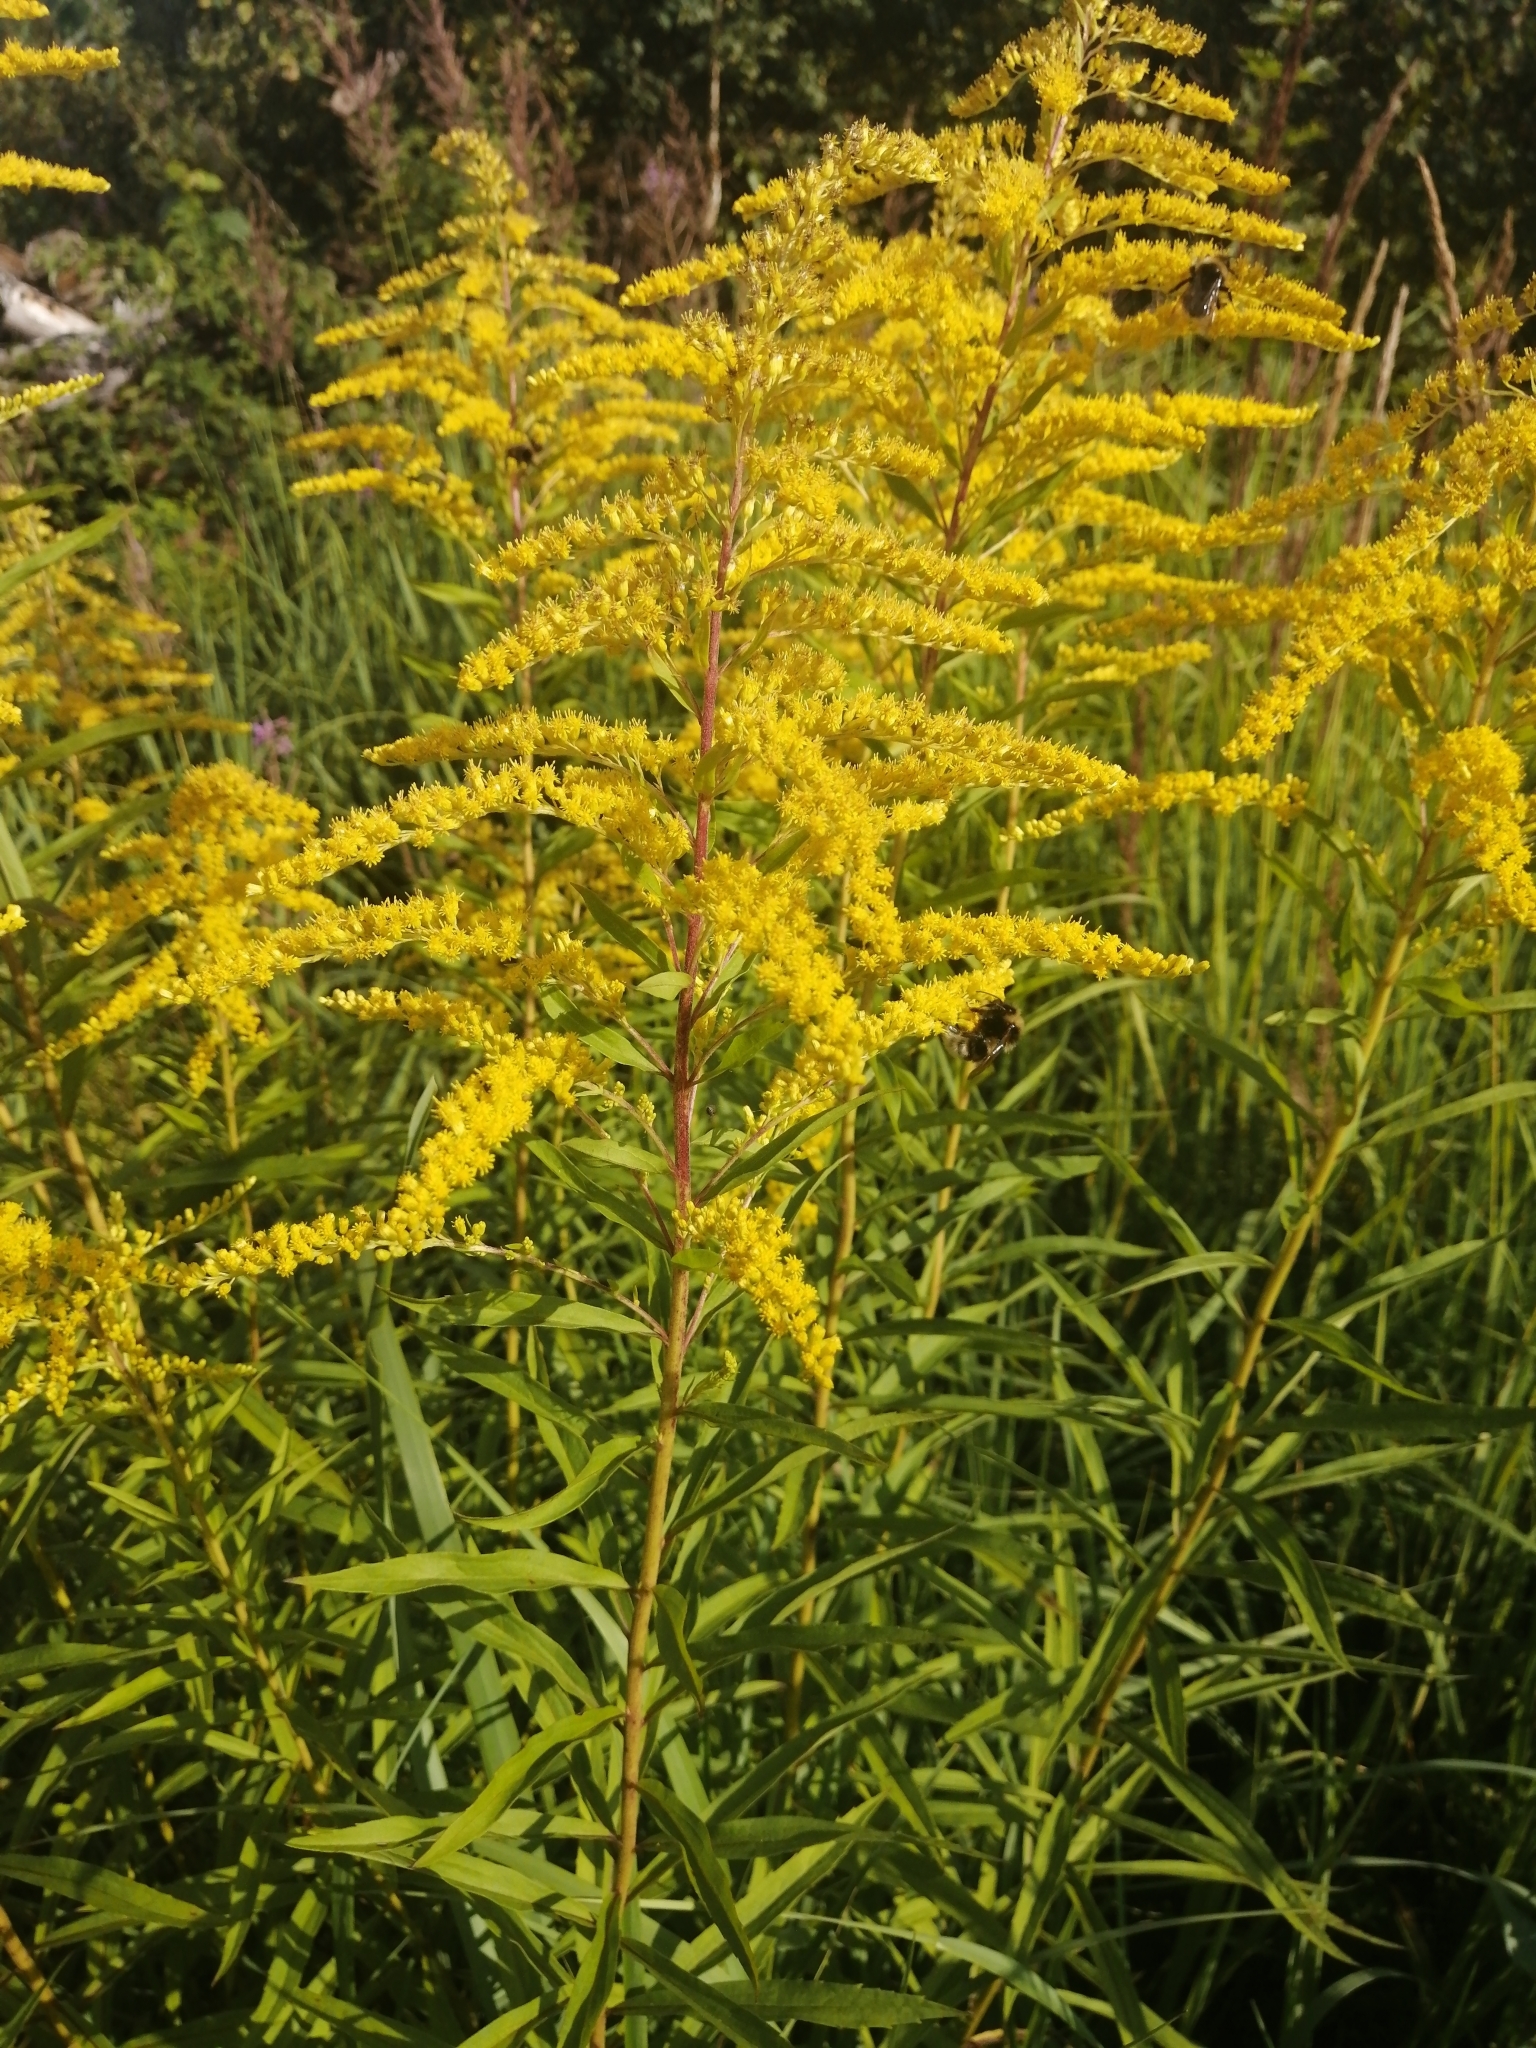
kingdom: Plantae
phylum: Tracheophyta
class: Magnoliopsida
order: Asterales
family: Asteraceae
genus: Solidago
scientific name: Solidago canadensis
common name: Canada goldenrod
